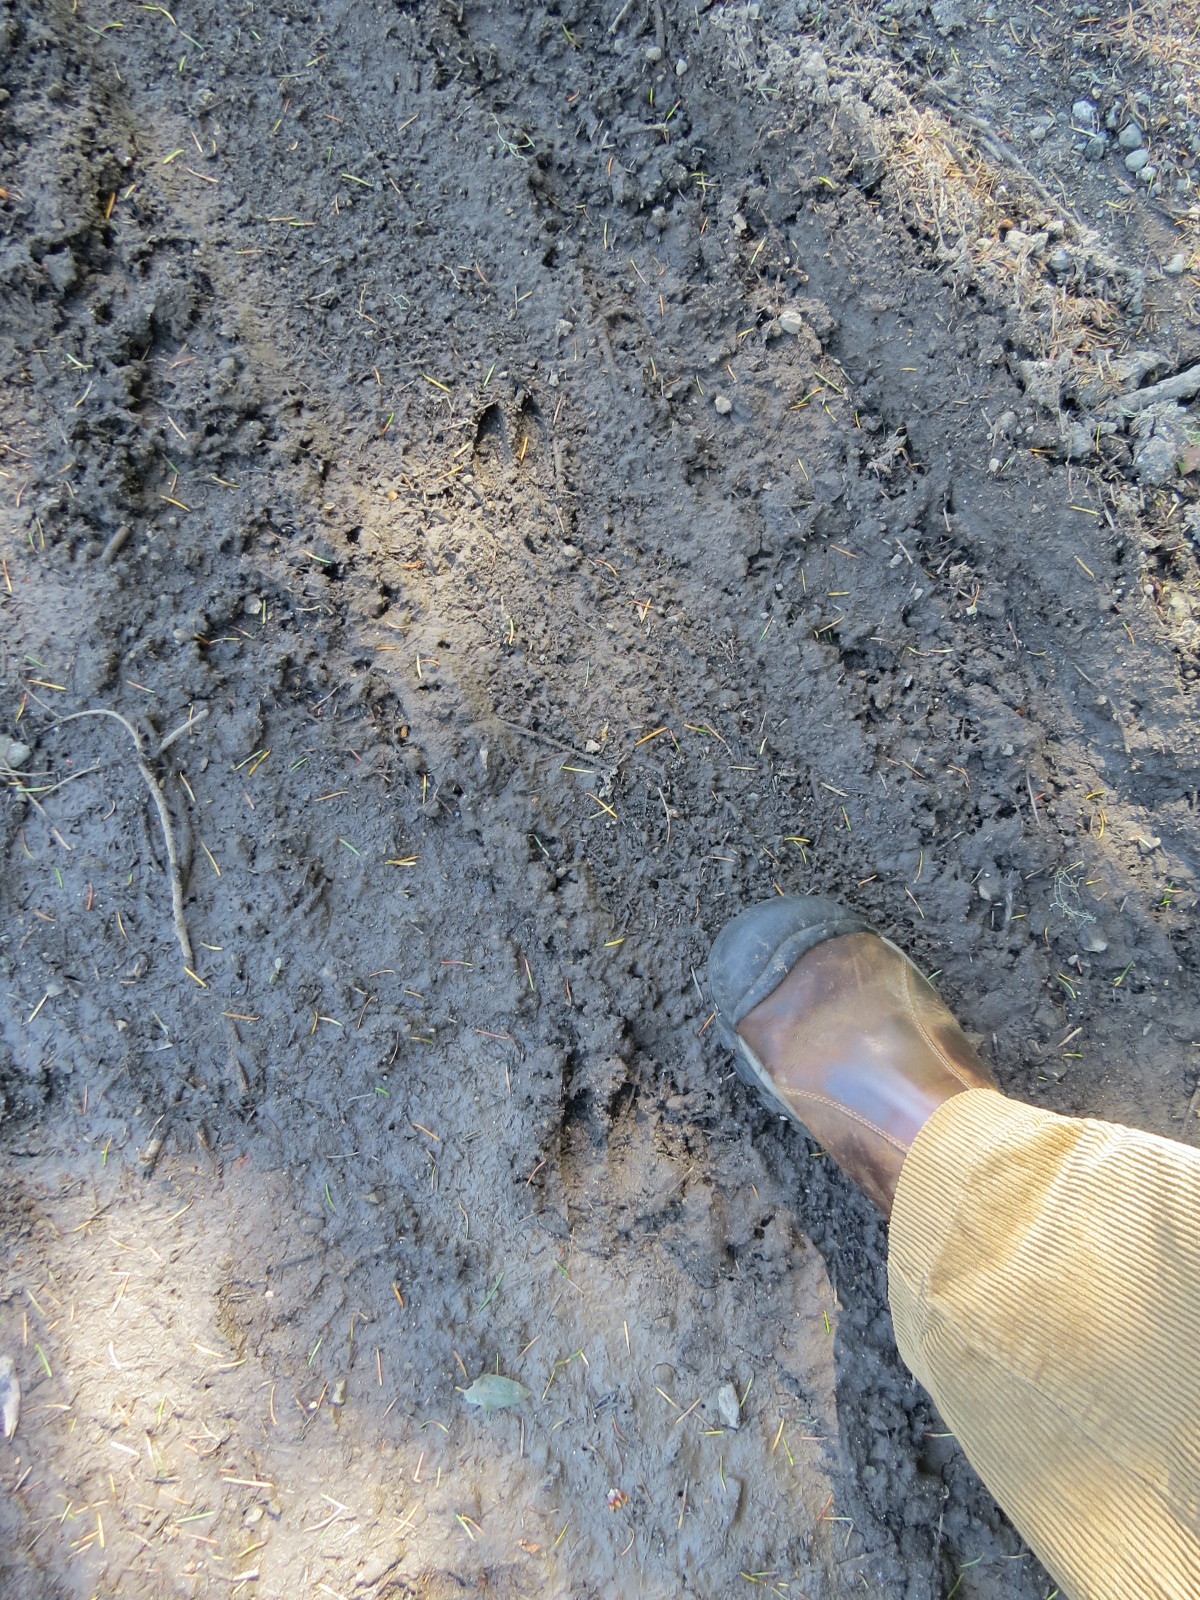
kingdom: Animalia
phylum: Chordata
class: Mammalia
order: Artiodactyla
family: Cervidae
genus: Odocoileus
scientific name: Odocoileus hemionus
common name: Mule deer
